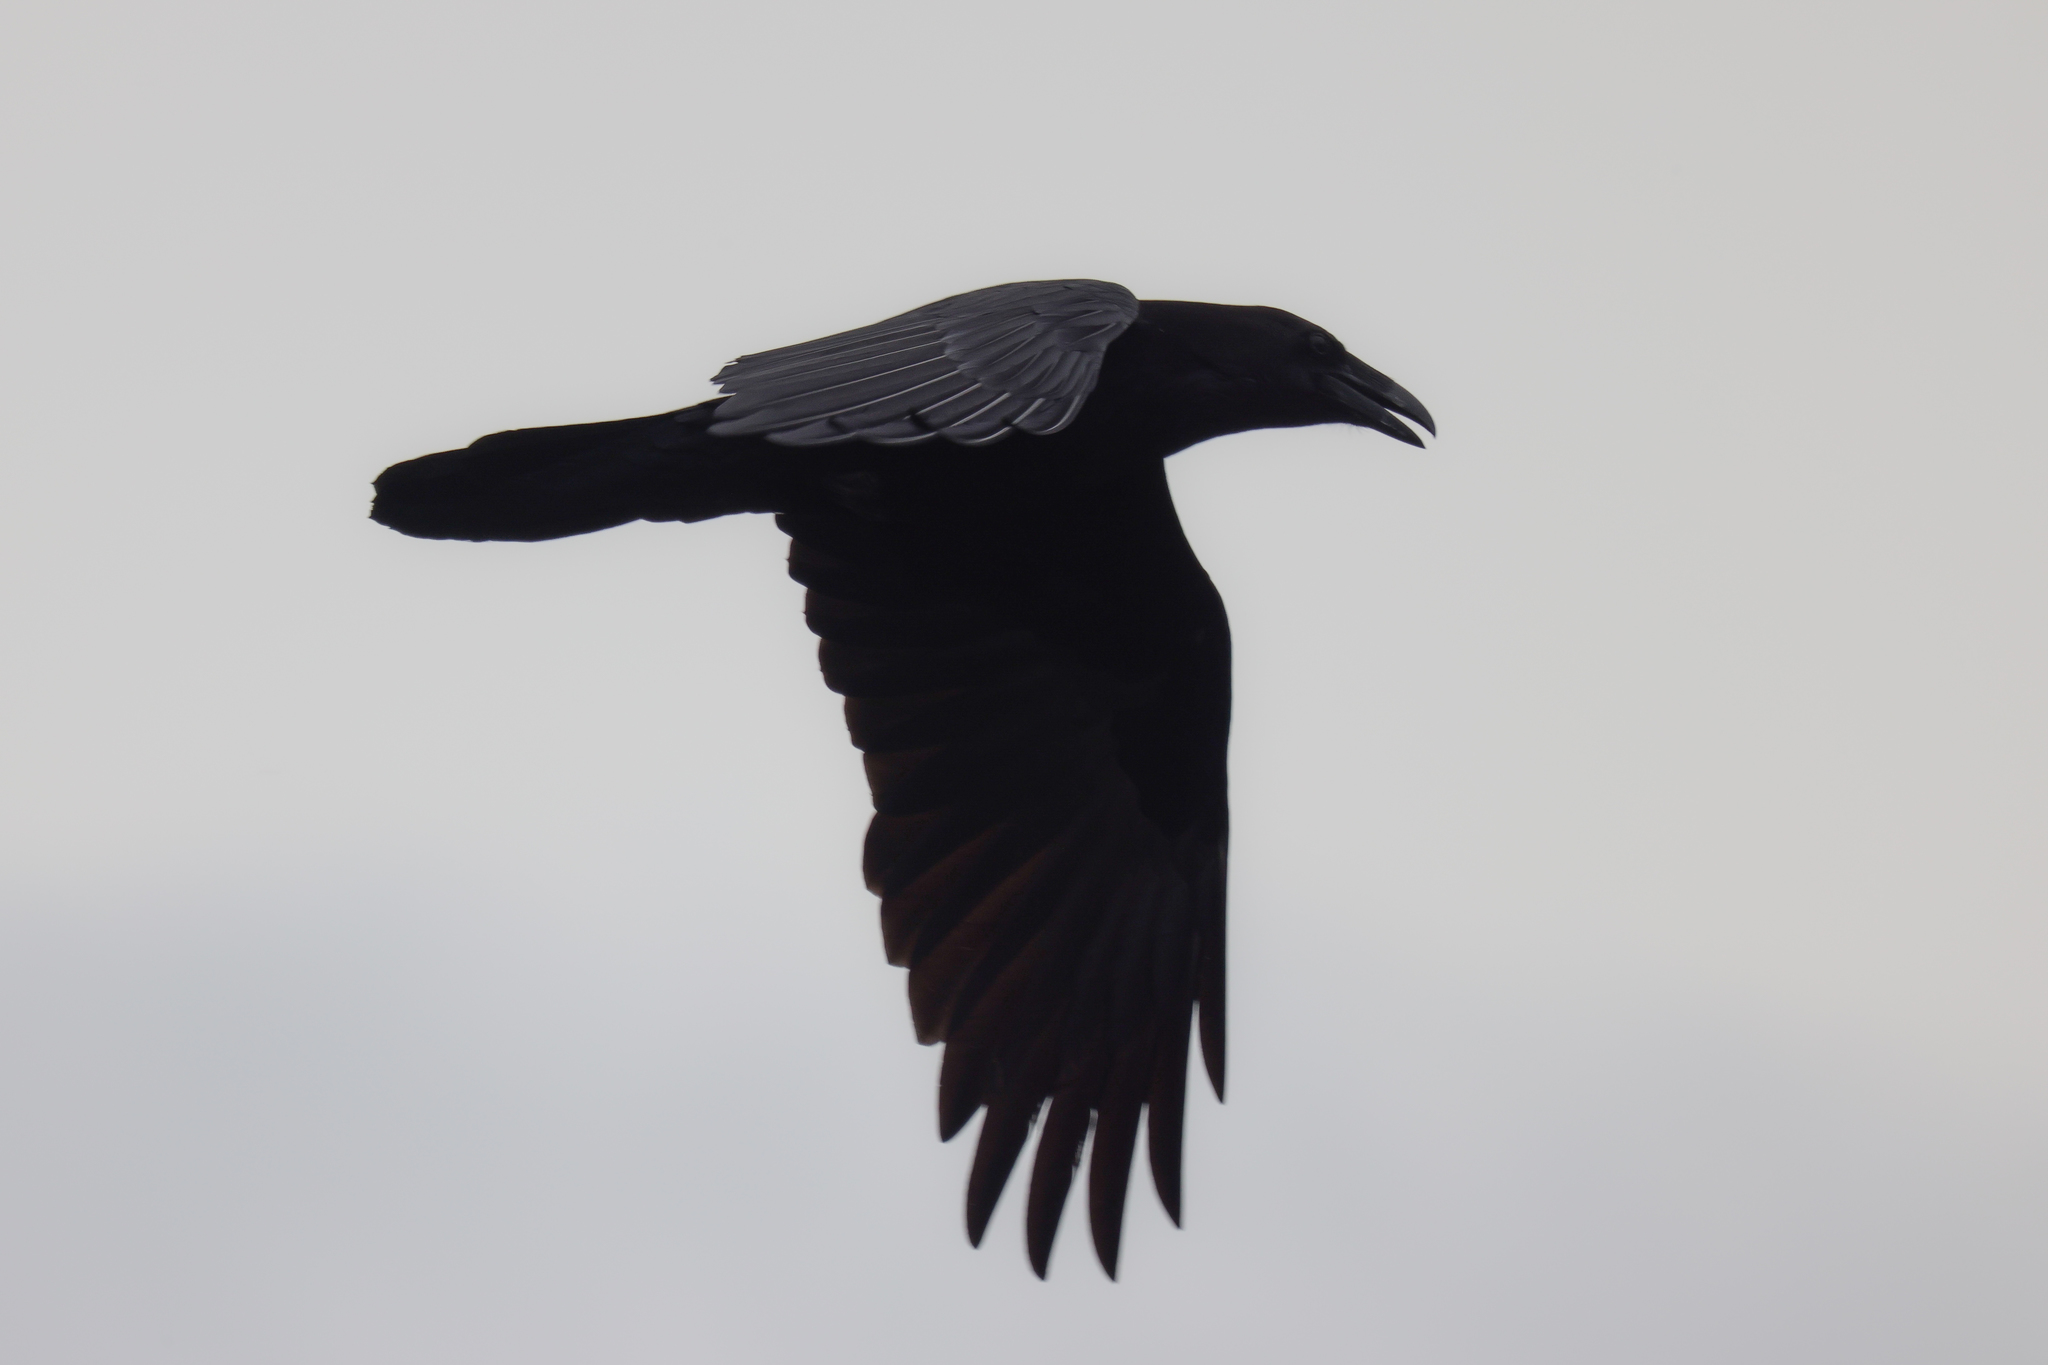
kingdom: Animalia
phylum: Chordata
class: Aves
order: Passeriformes
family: Corvidae
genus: Corvus
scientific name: Corvus corax
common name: Common raven
